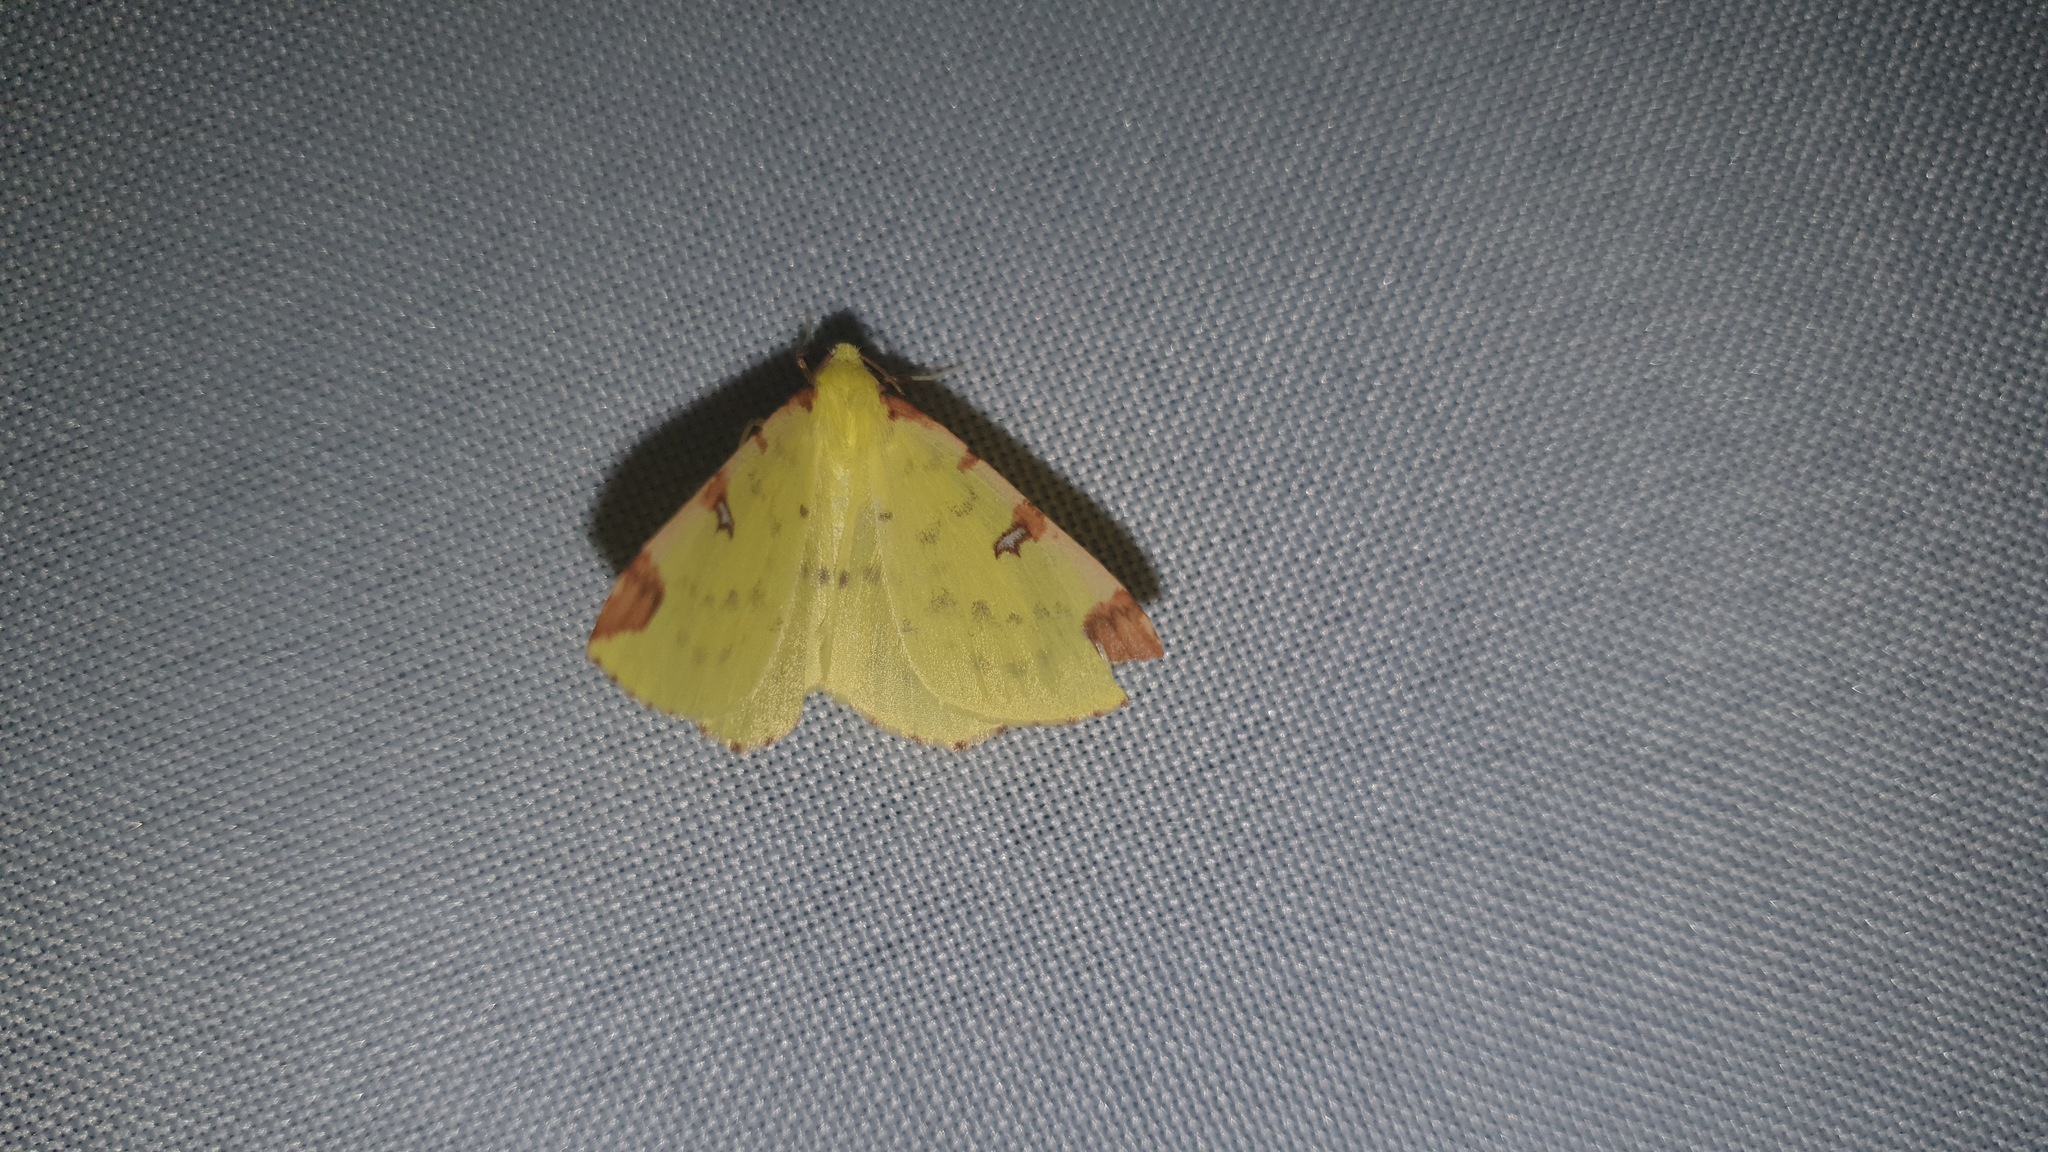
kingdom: Animalia
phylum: Arthropoda
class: Insecta
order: Lepidoptera
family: Geometridae
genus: Opisthograptis
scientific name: Opisthograptis luteolata
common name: Brimstone moth
